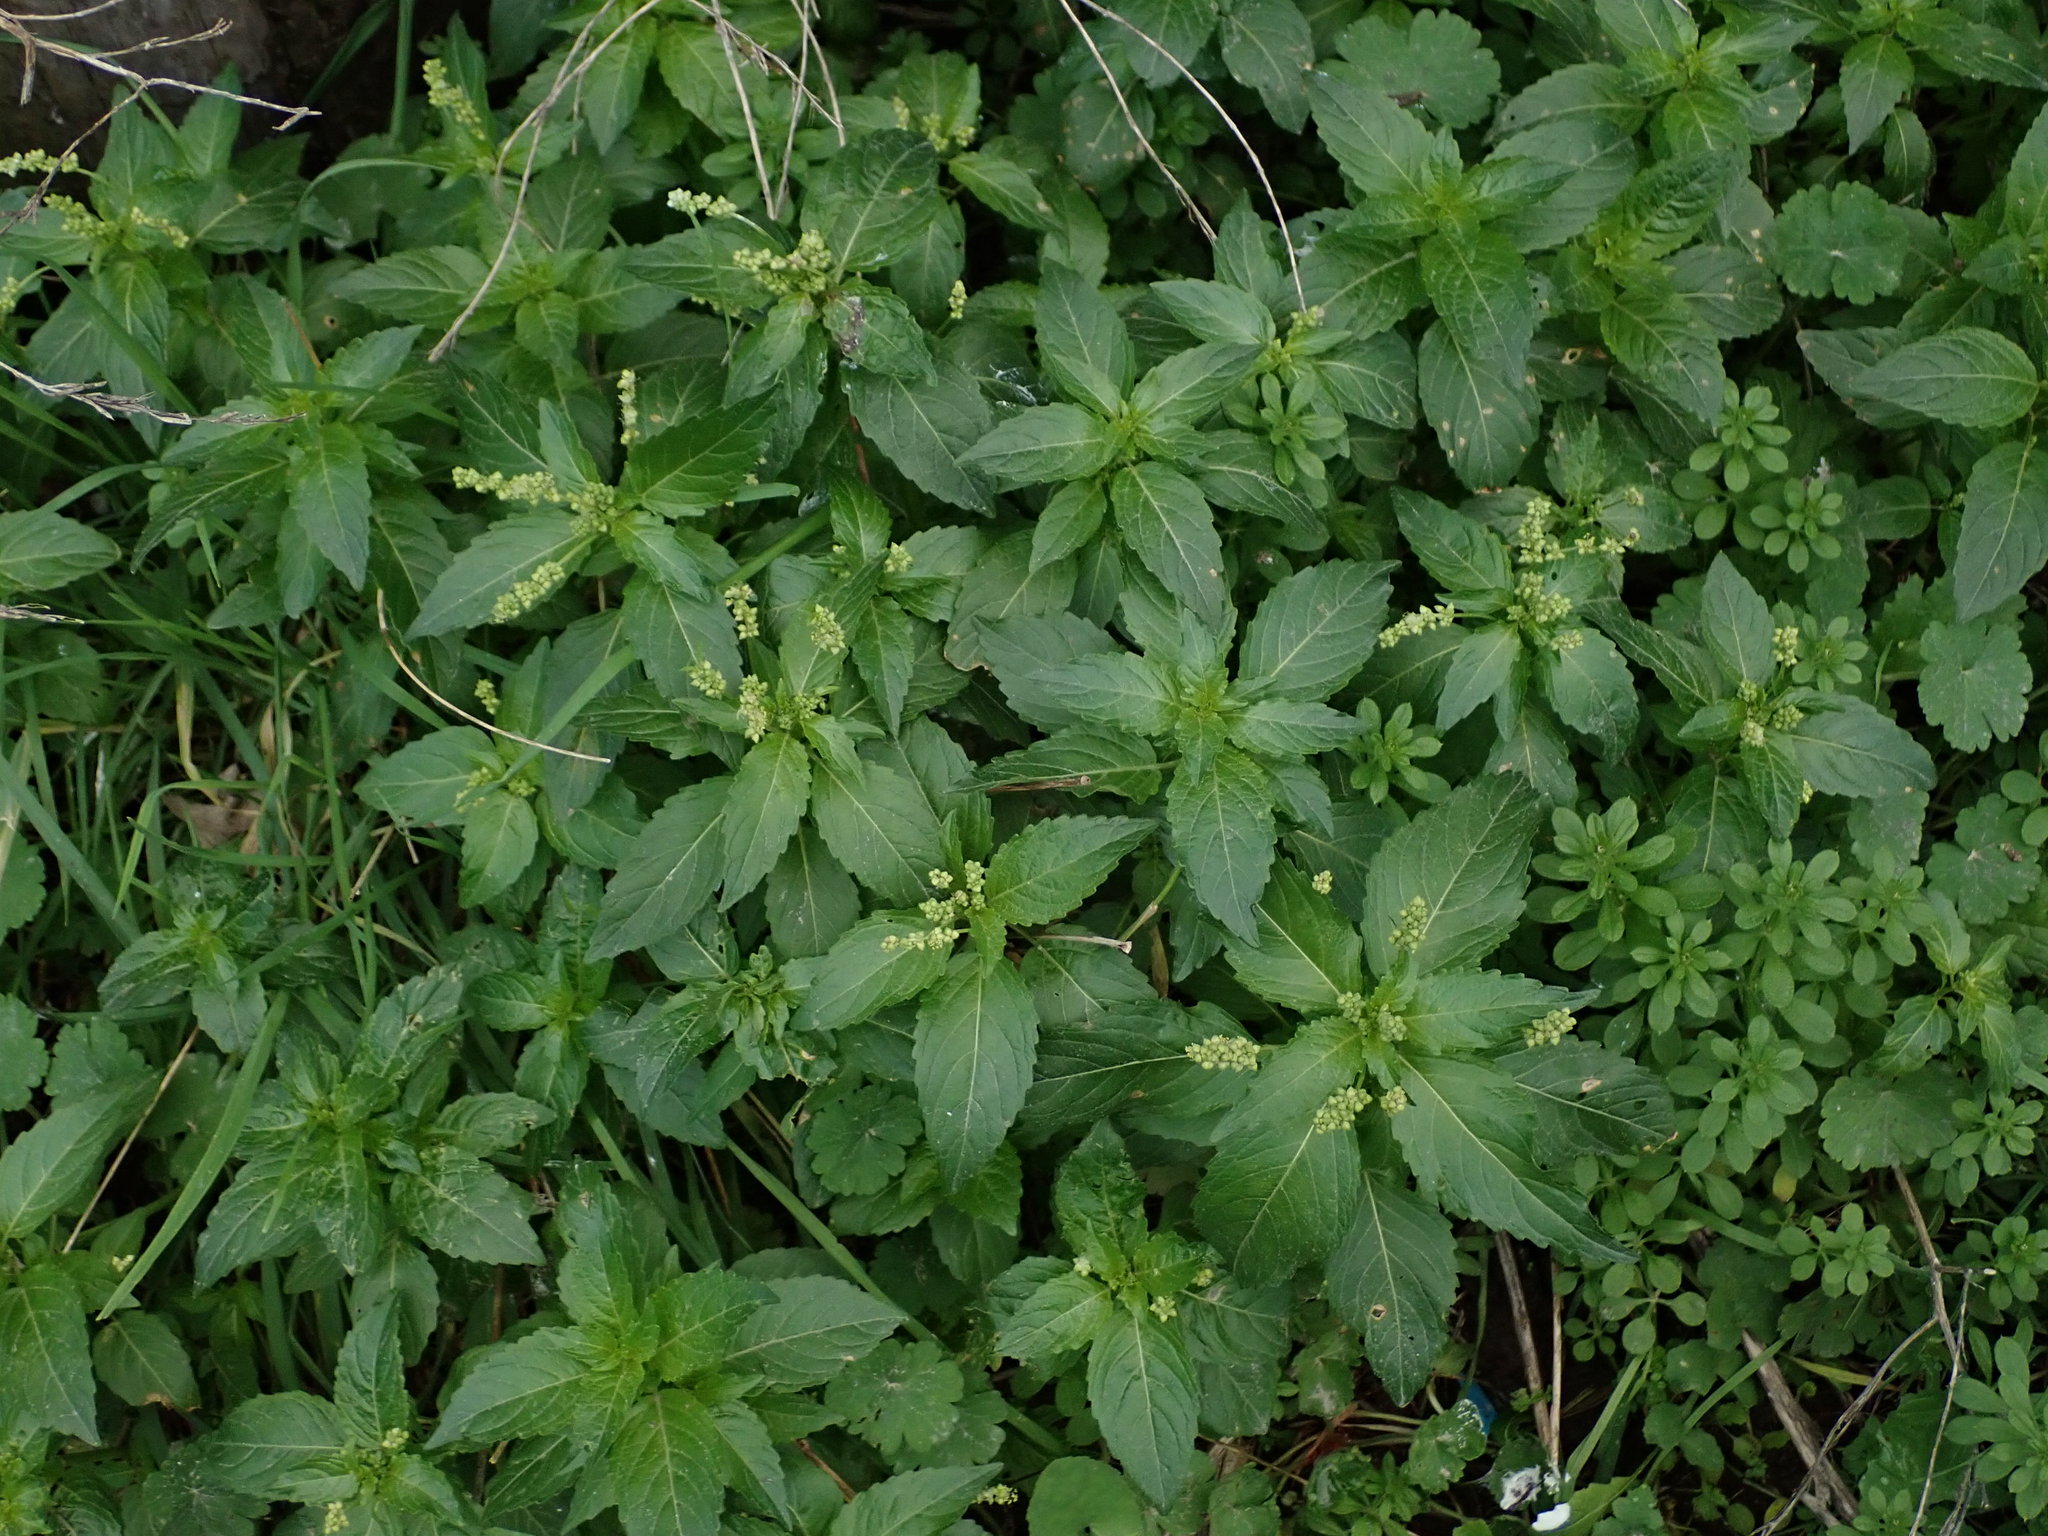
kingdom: Plantae
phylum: Tracheophyta
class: Magnoliopsida
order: Malpighiales
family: Euphorbiaceae
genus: Mercurialis
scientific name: Mercurialis annua
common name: Annual mercury
